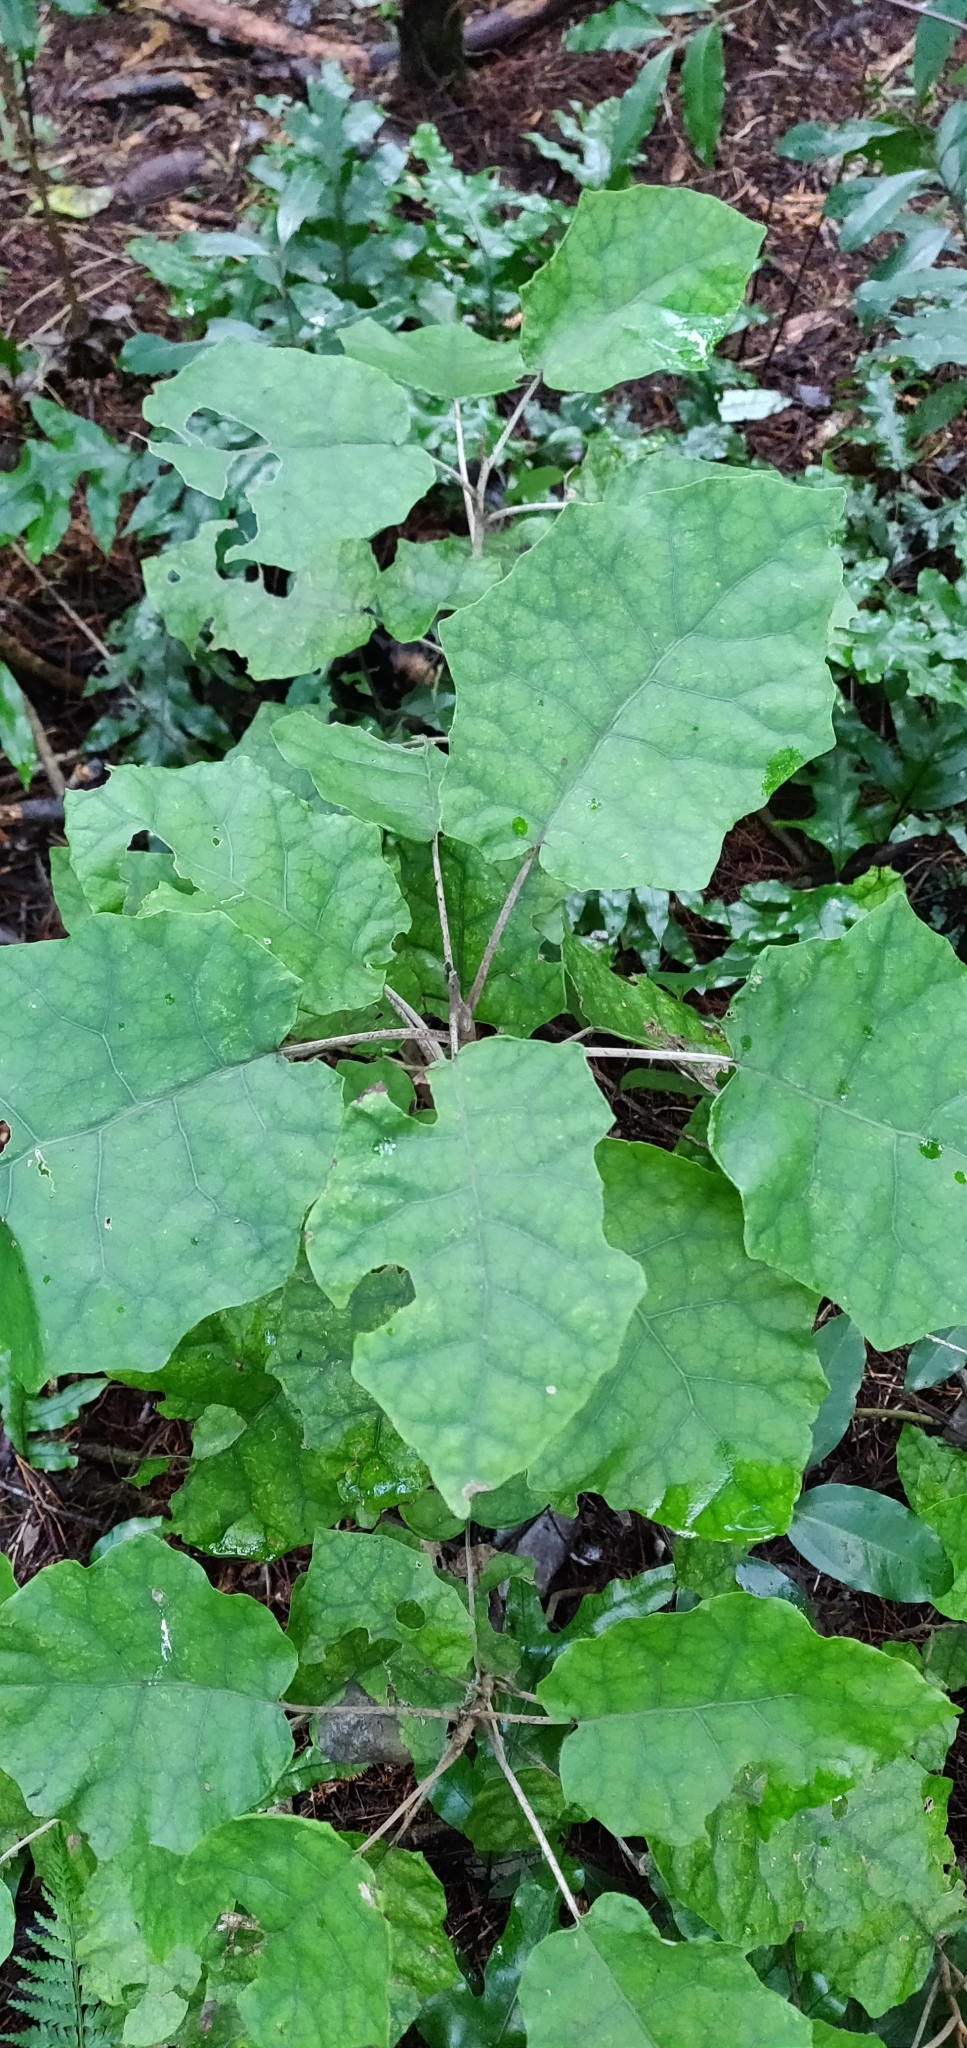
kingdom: Plantae
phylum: Tracheophyta
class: Magnoliopsida
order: Asterales
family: Asteraceae
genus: Brachyglottis
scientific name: Brachyglottis repanda
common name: Hedge ragwort
